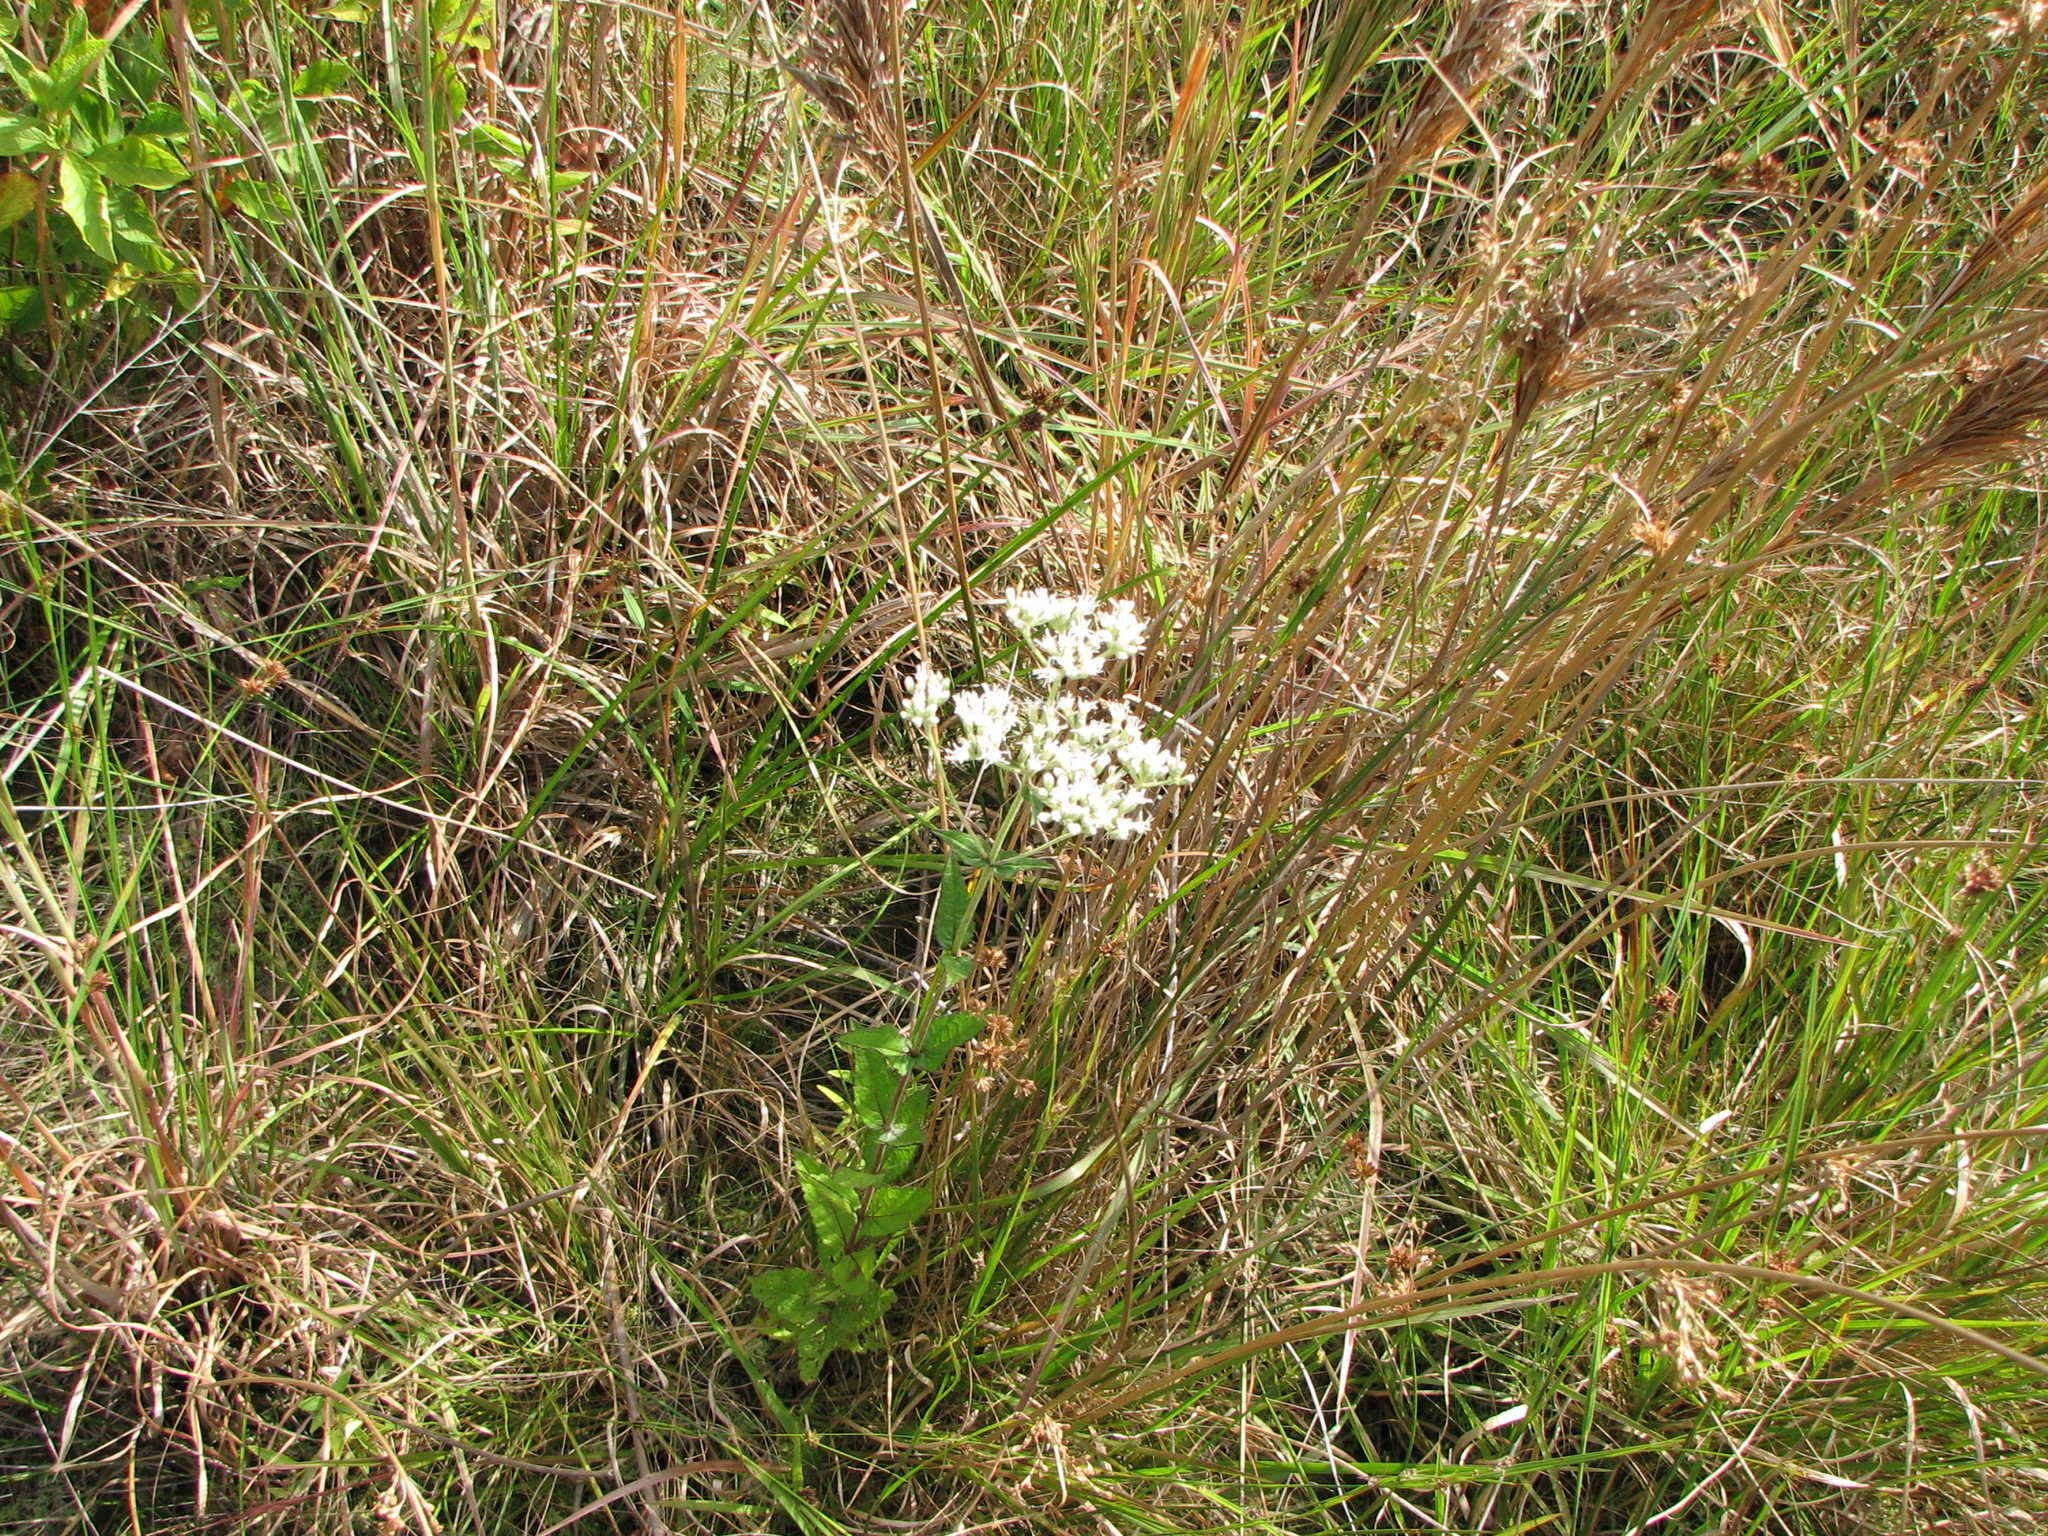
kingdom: Plantae
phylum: Tracheophyta
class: Magnoliopsida
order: Asterales
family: Asteraceae
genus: Eupatorium
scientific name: Eupatorium pilosum
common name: Rough boneset
